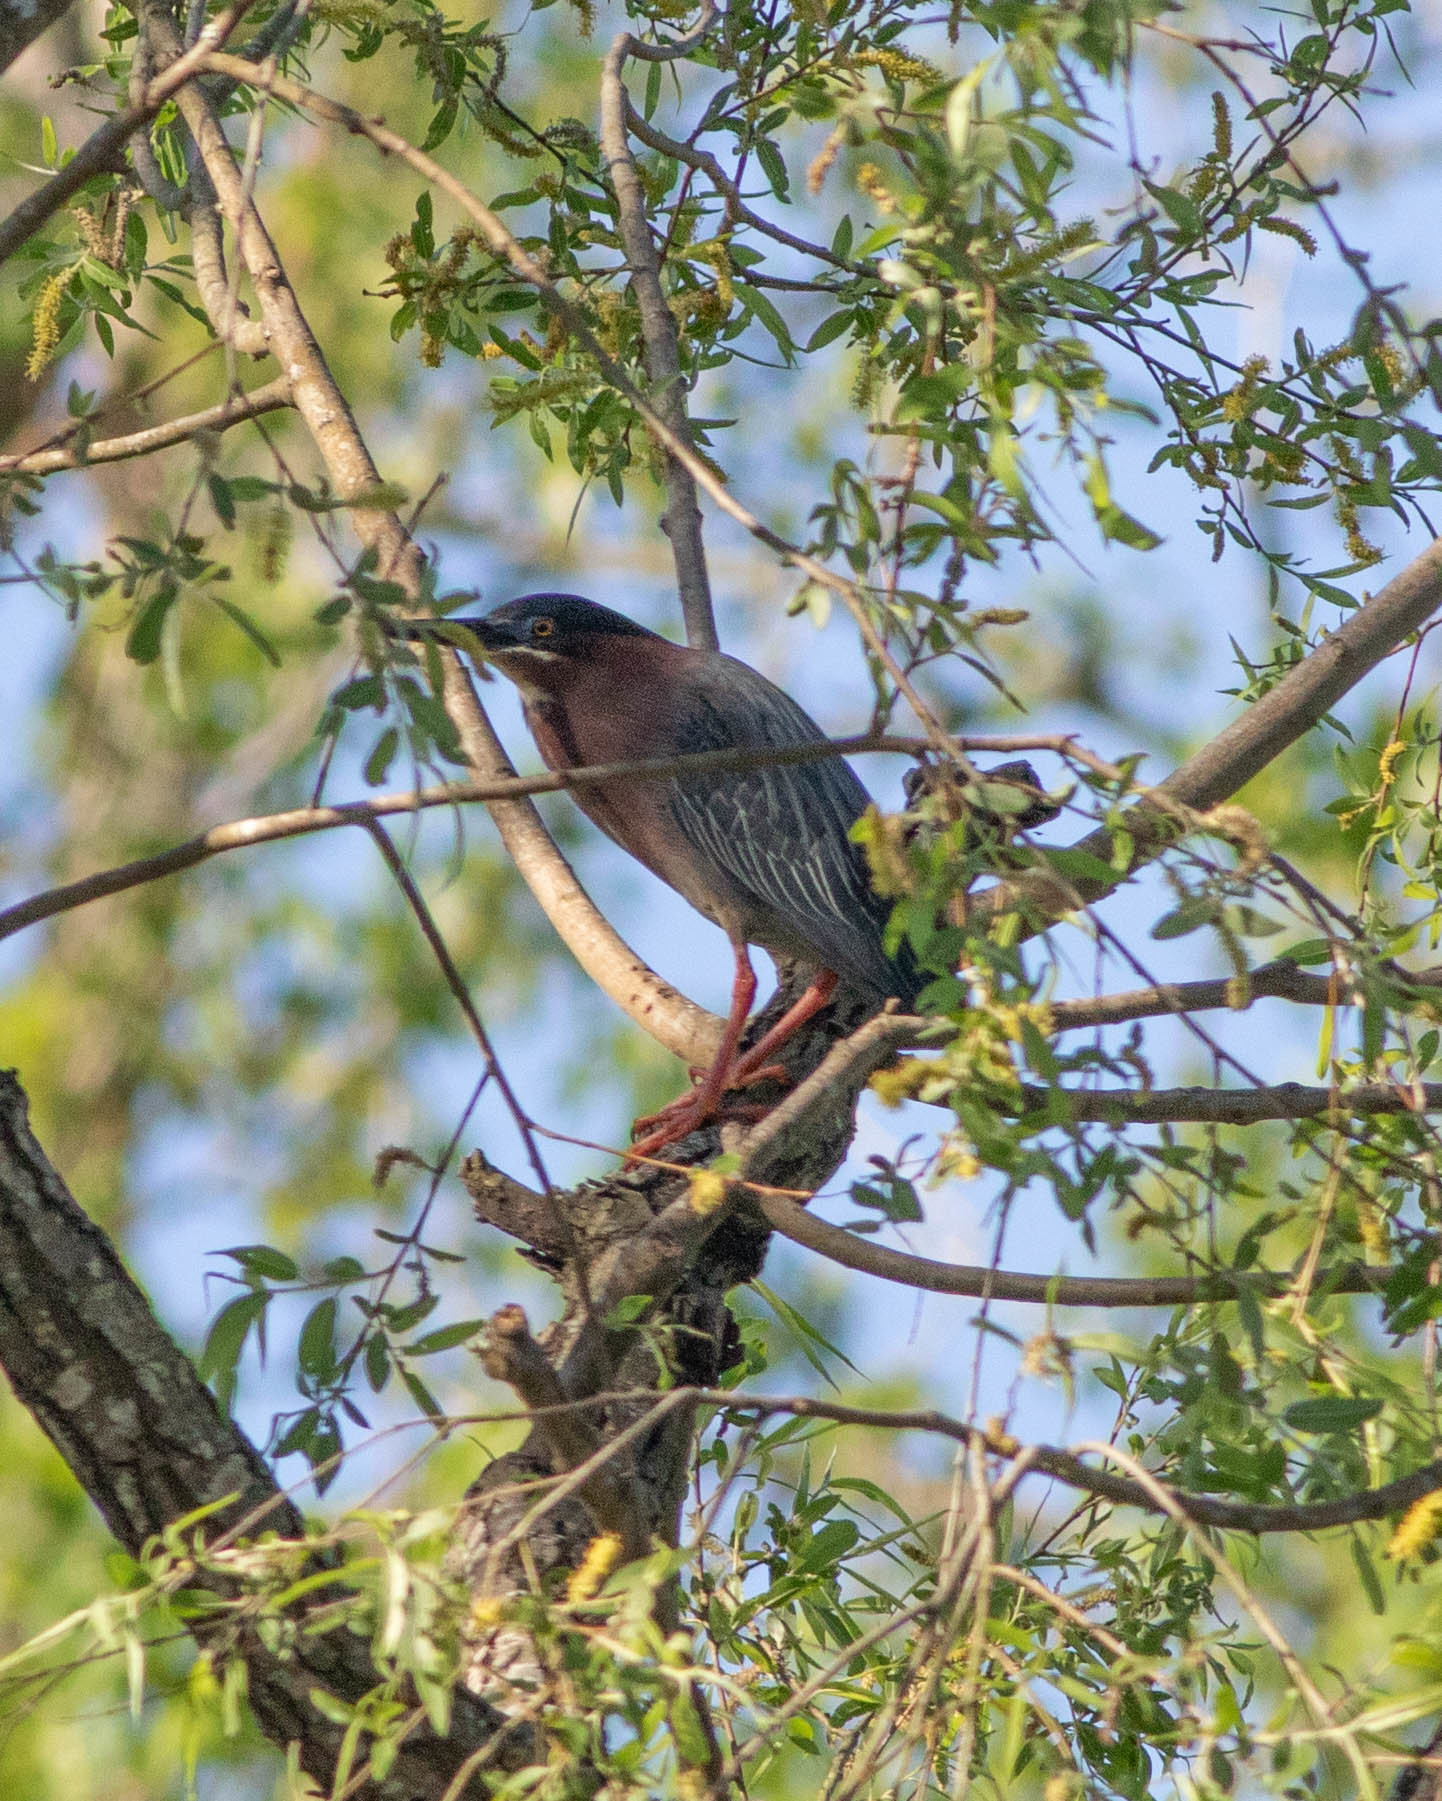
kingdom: Animalia
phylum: Chordata
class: Aves
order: Pelecaniformes
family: Ardeidae
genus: Butorides
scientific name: Butorides virescens
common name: Green heron
